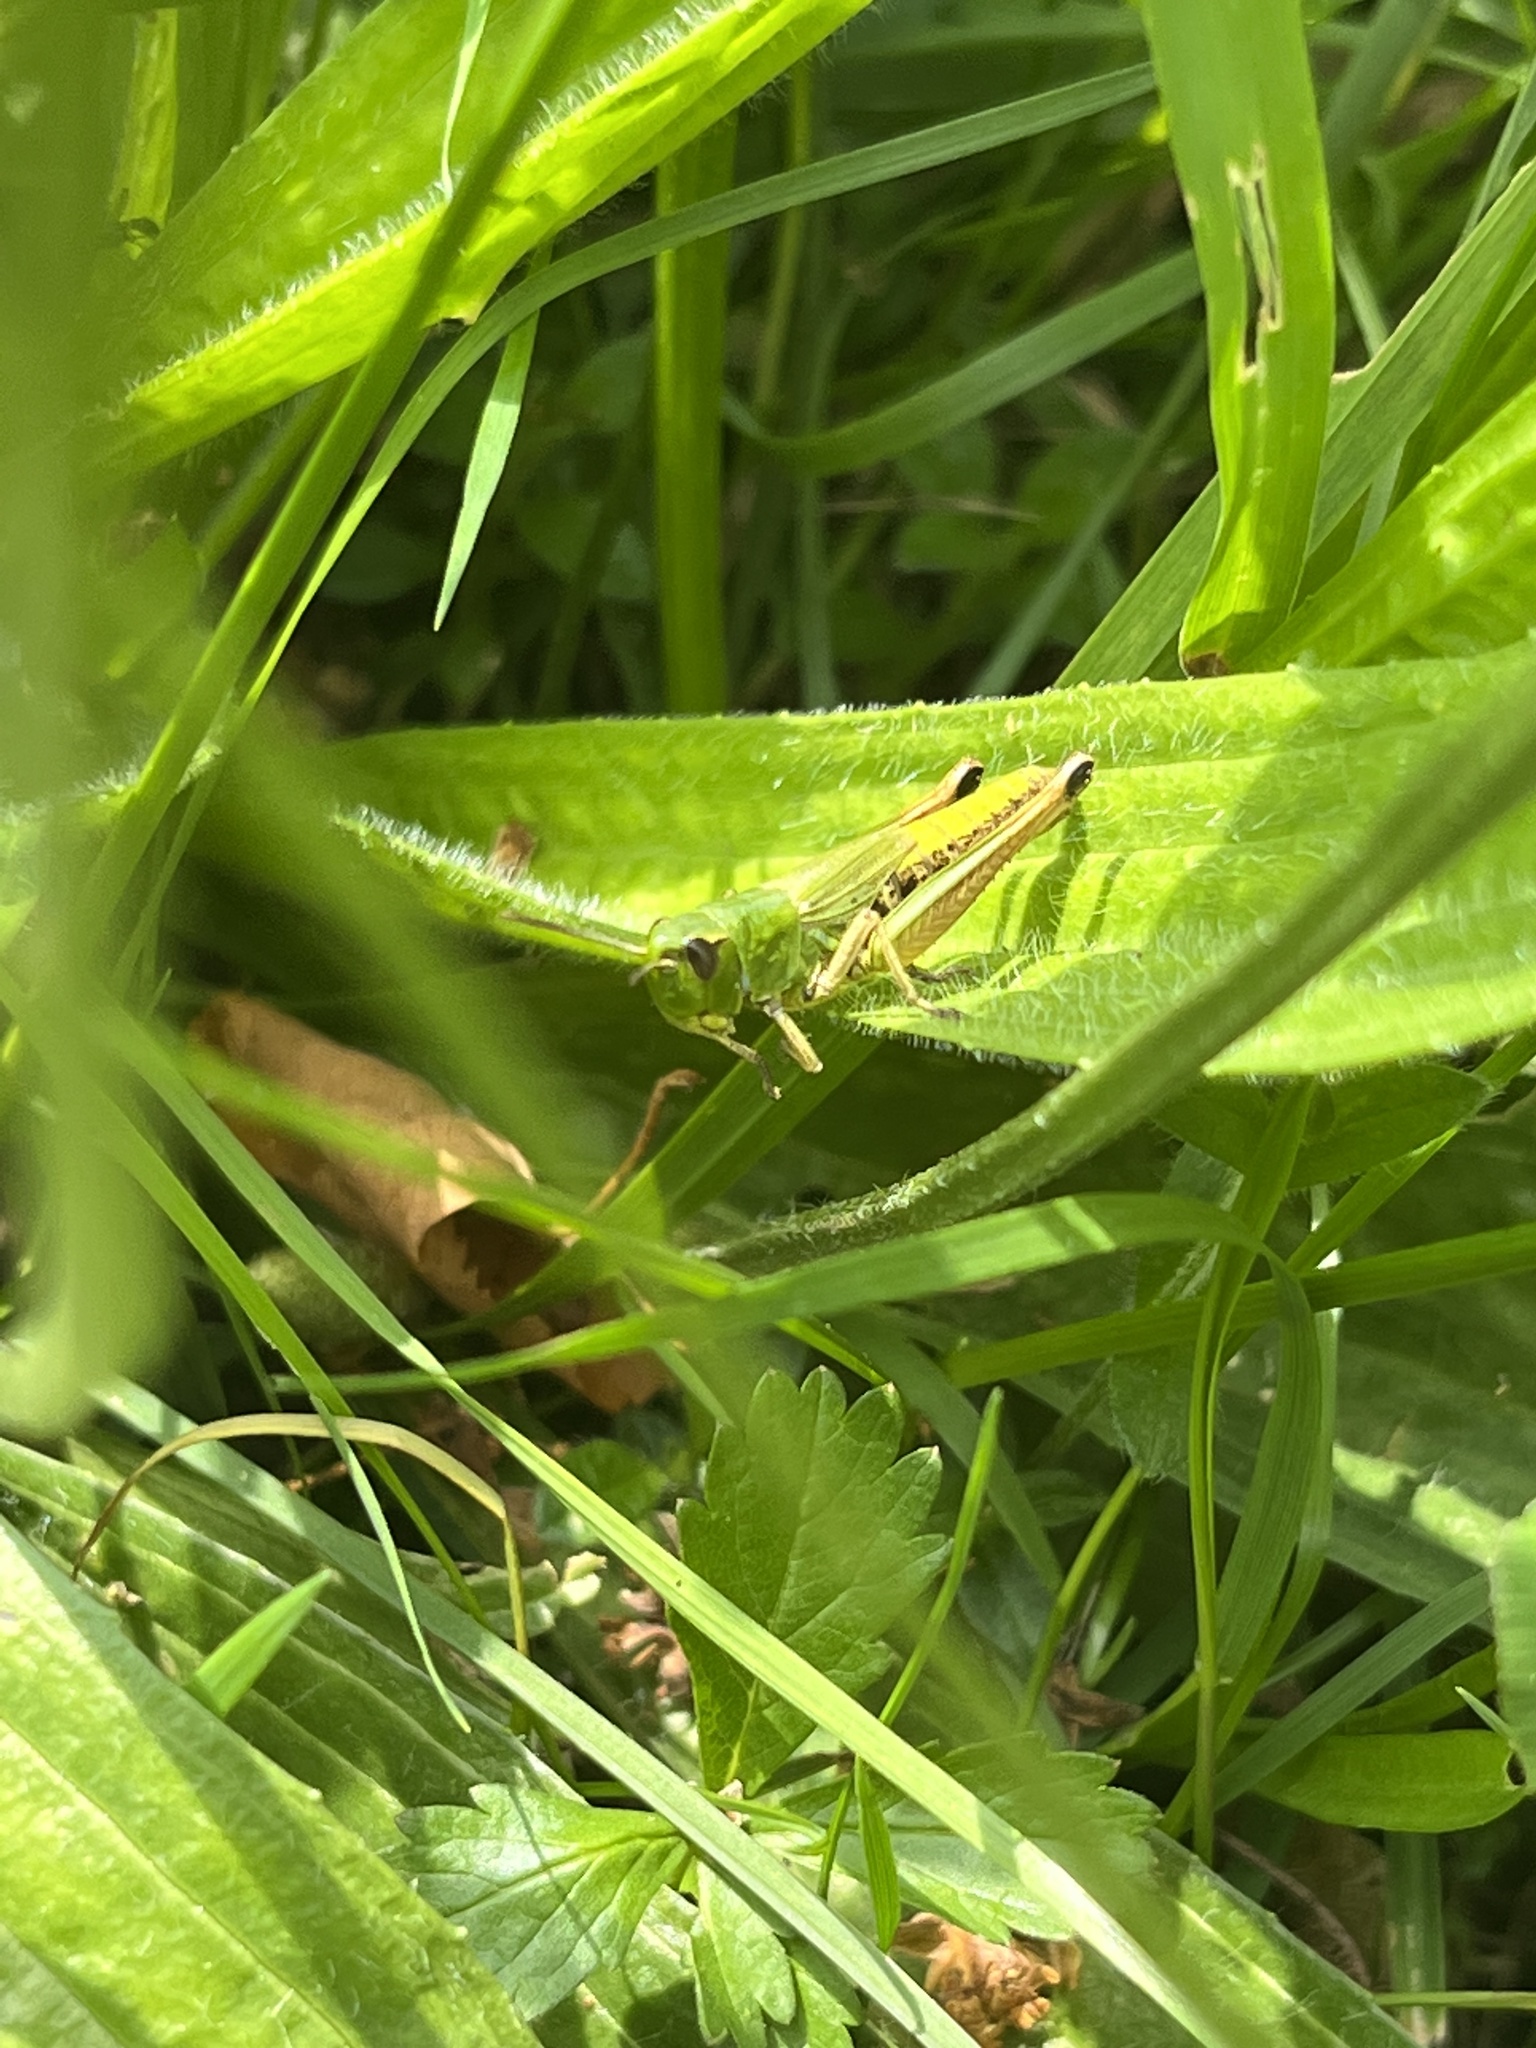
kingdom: Animalia
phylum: Arthropoda
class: Insecta
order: Orthoptera
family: Acrididae
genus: Pseudochorthippus
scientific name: Pseudochorthippus parallelus
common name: Meadow grasshopper
